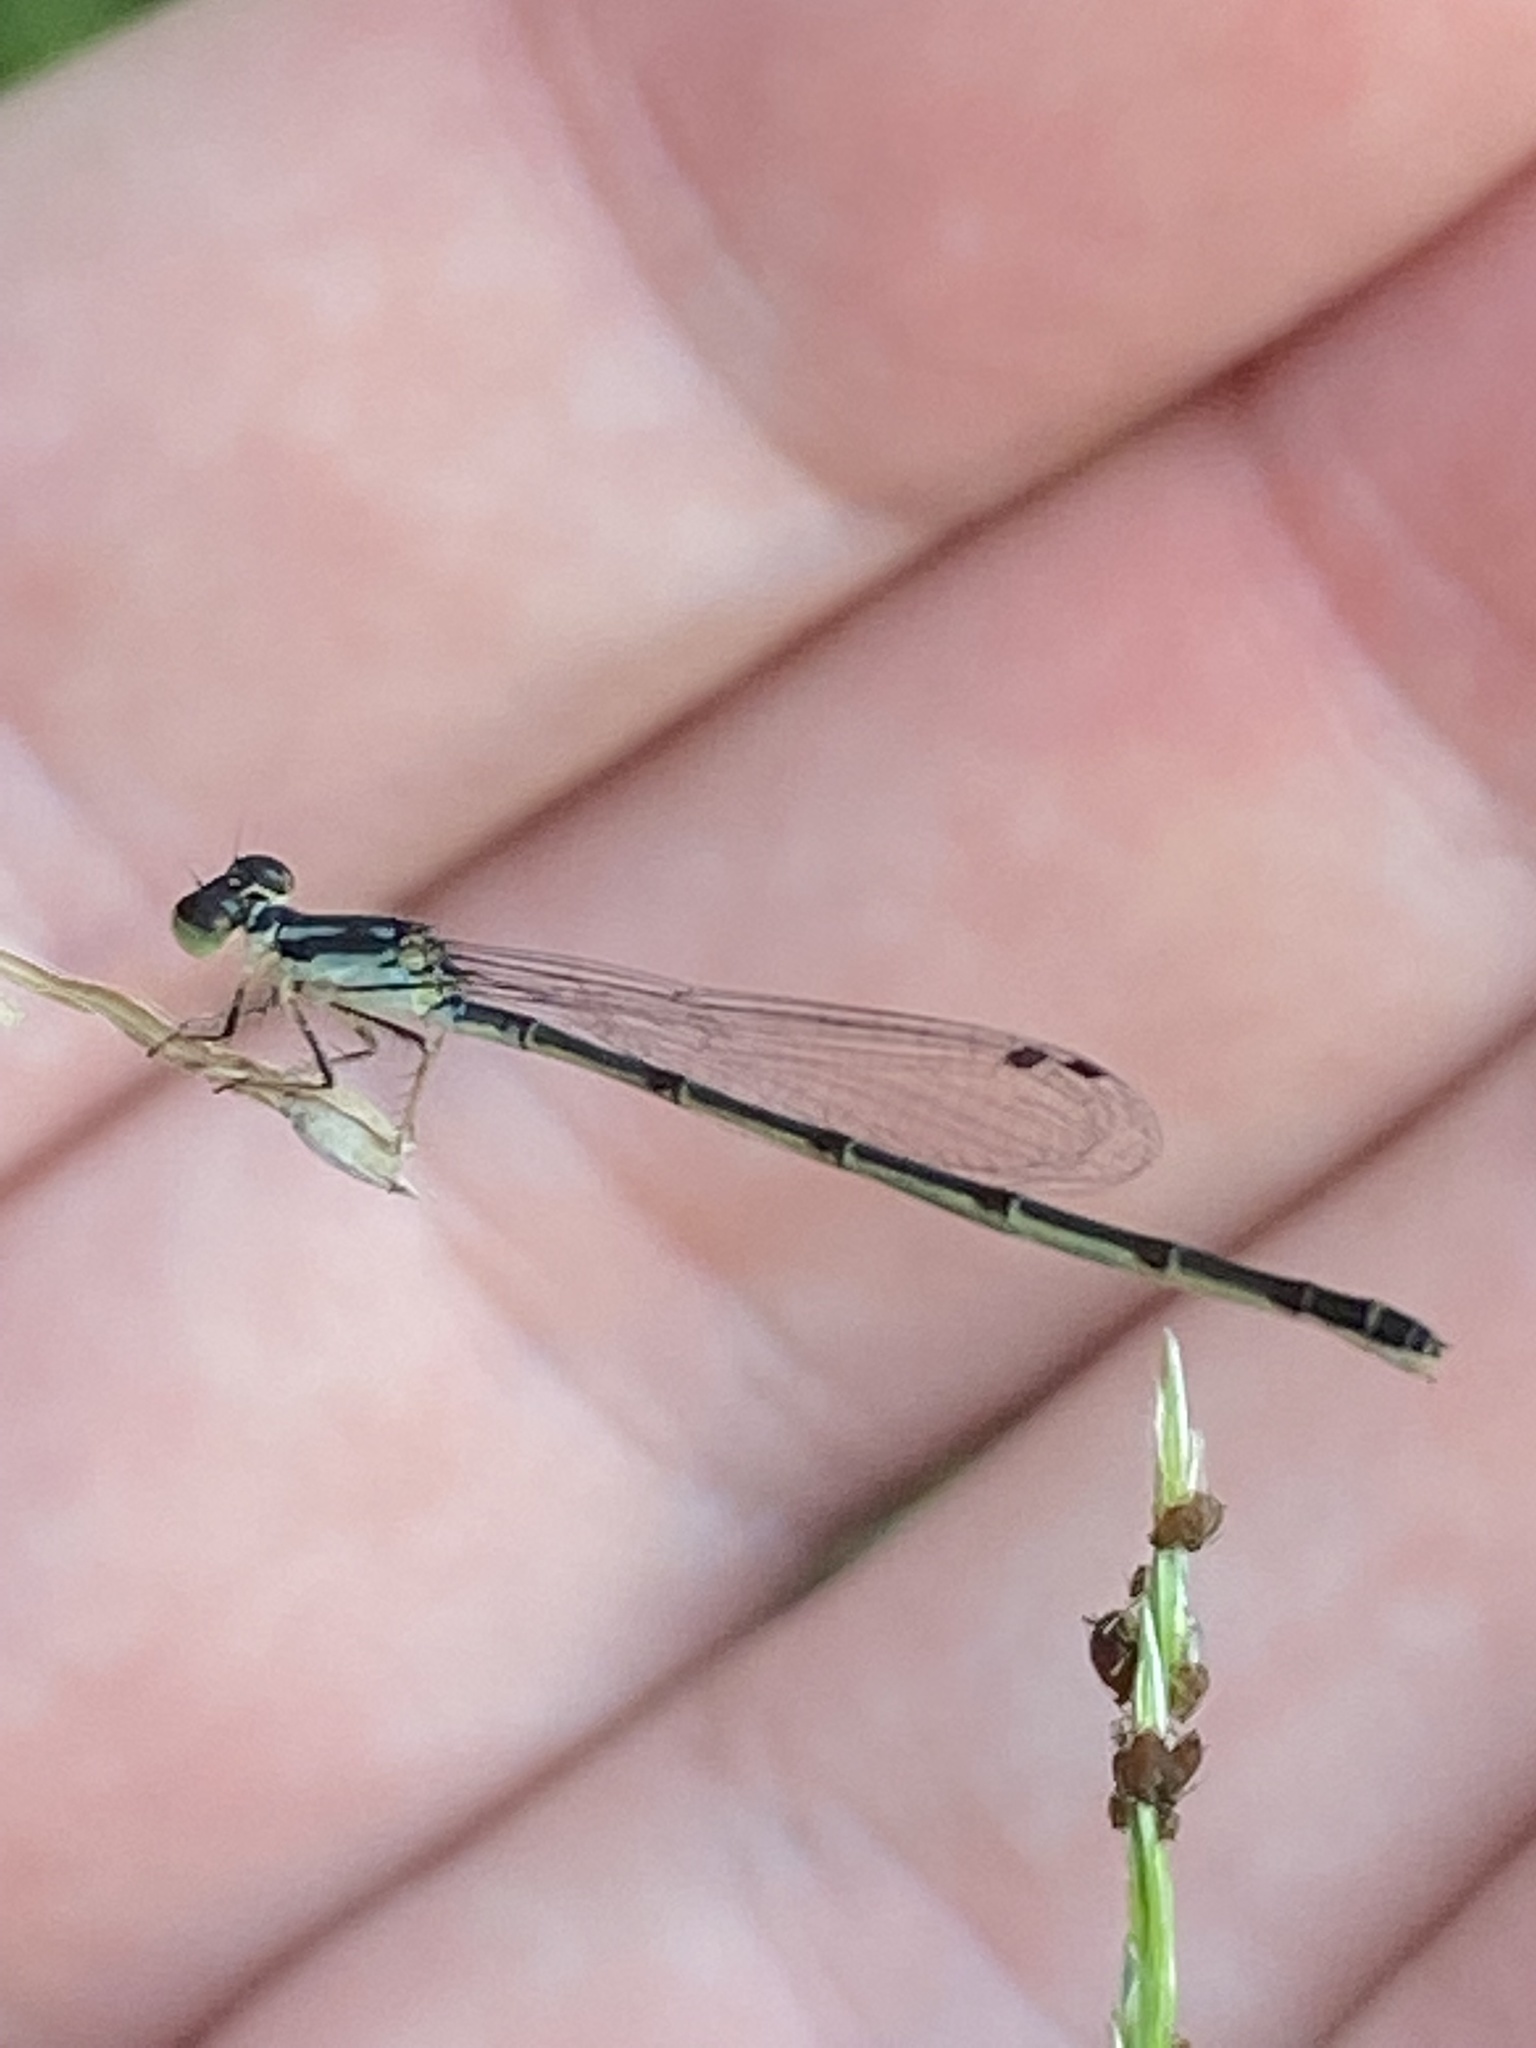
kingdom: Animalia
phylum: Arthropoda
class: Insecta
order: Odonata
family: Coenagrionidae
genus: Ischnura
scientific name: Ischnura posita
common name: Fragile forktail
